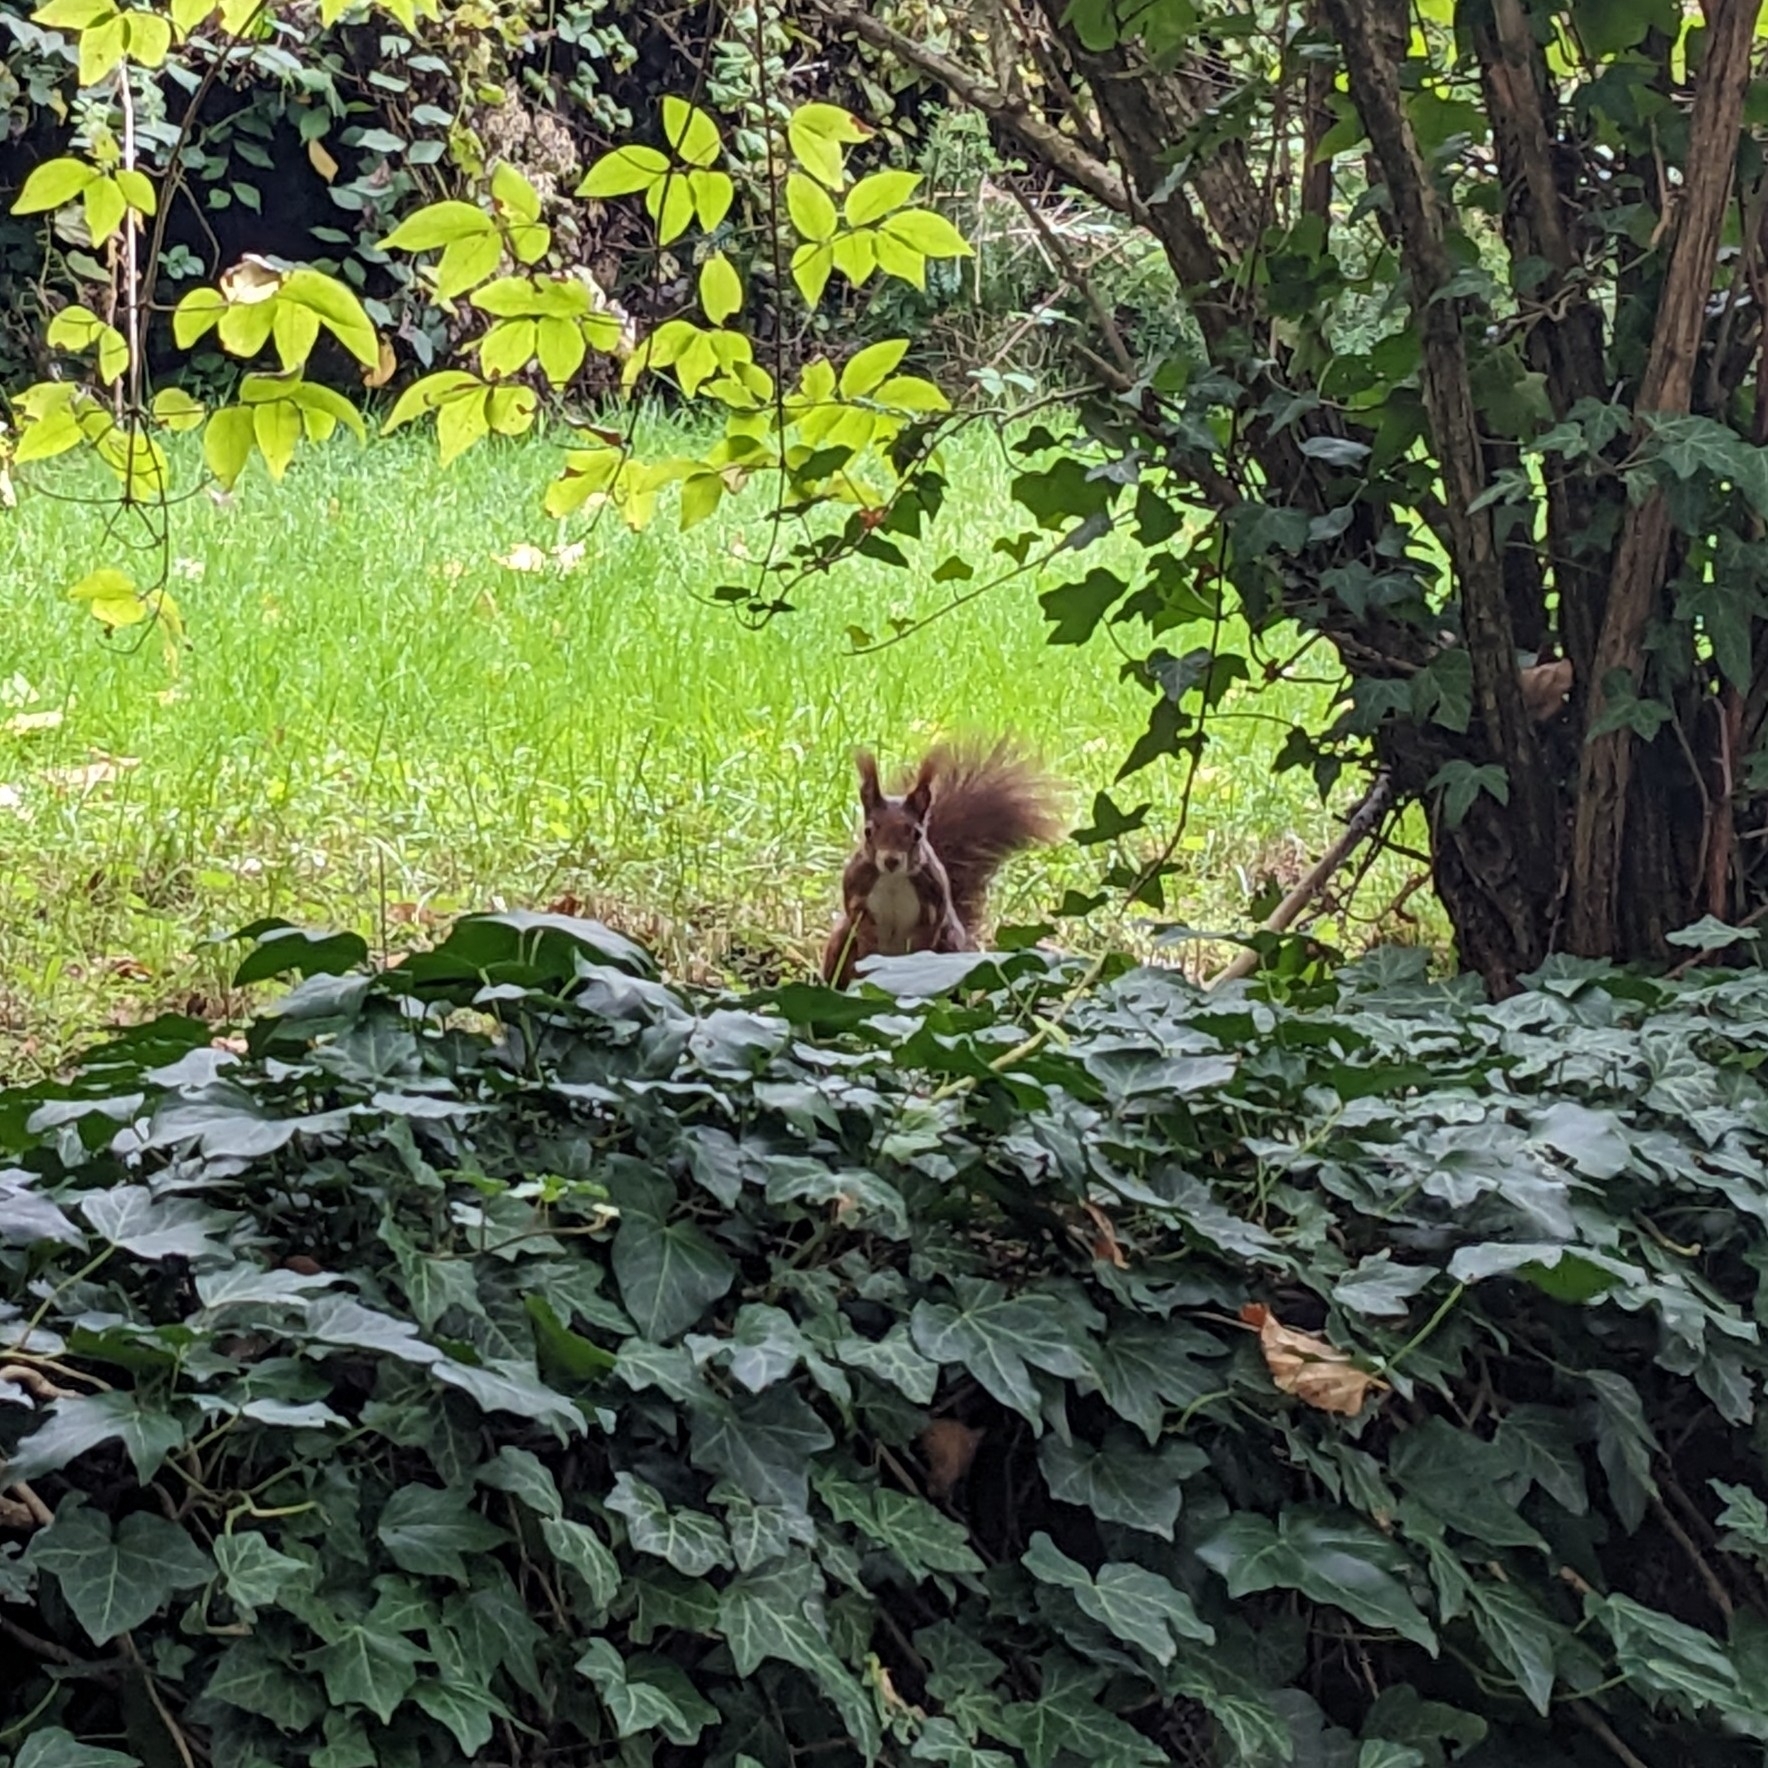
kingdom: Animalia
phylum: Chordata
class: Mammalia
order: Rodentia
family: Sciuridae
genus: Sciurus
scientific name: Sciurus vulgaris
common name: Eurasian red squirrel
